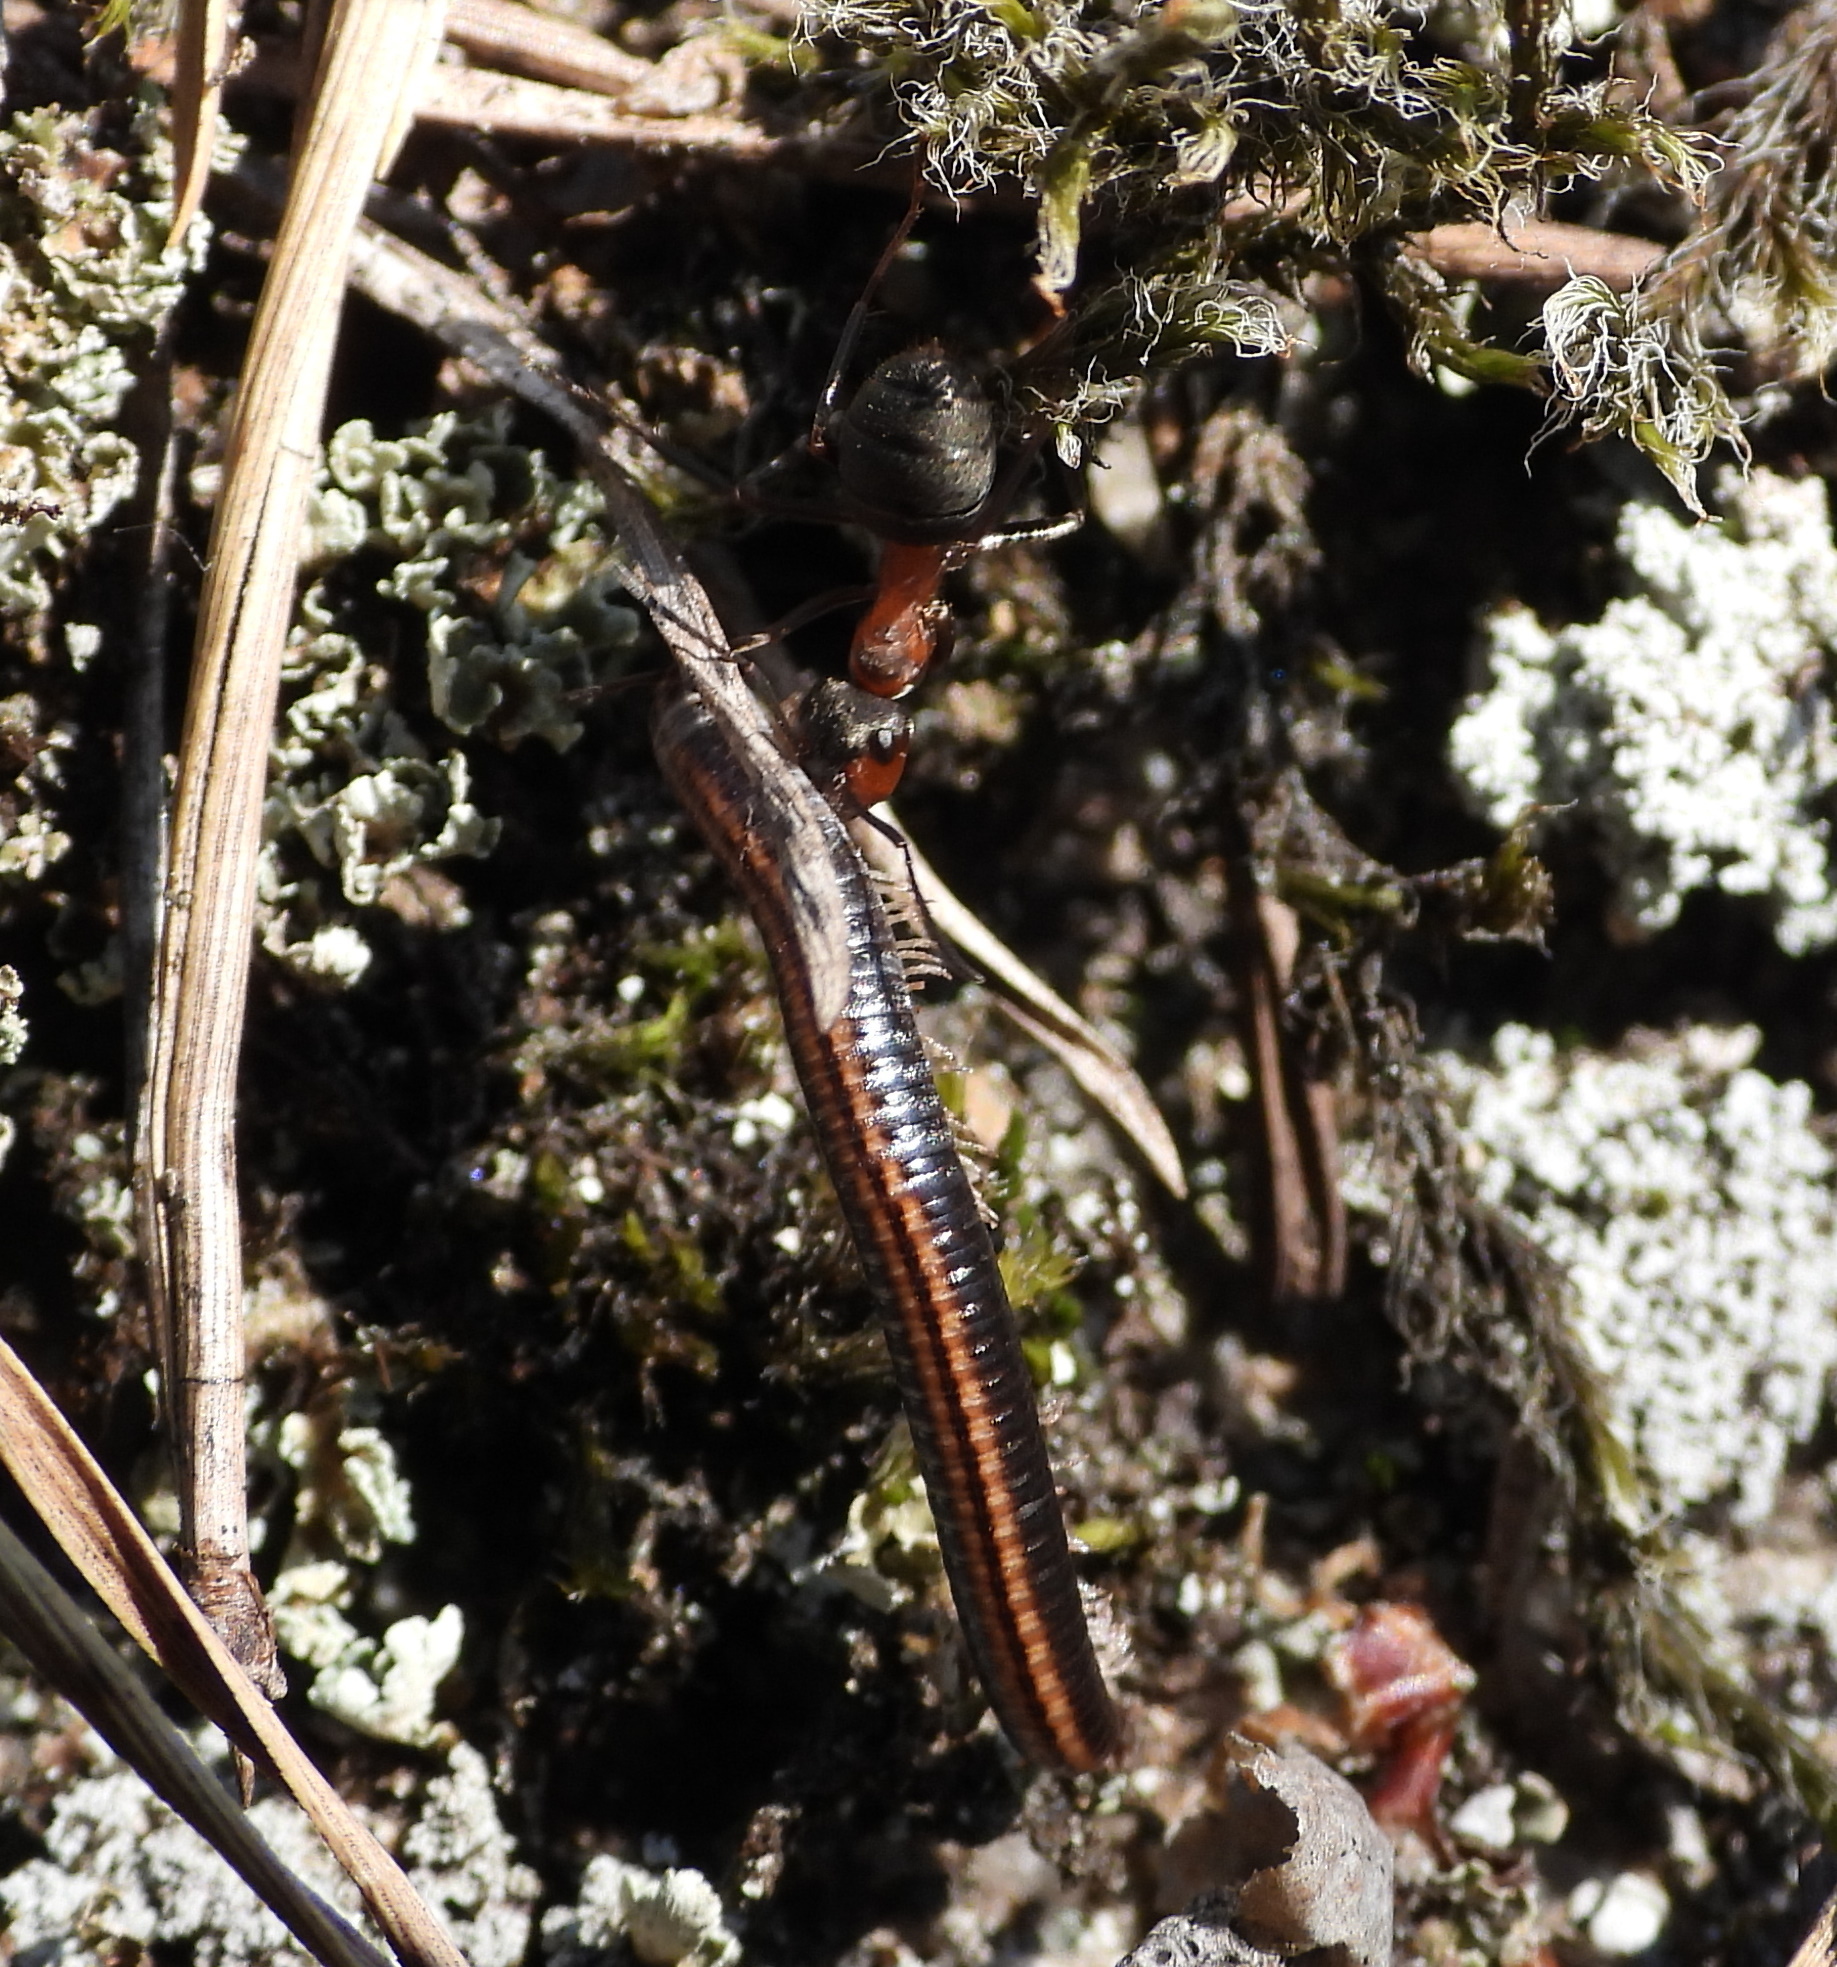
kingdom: Animalia
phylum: Arthropoda
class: Diplopoda
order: Julida
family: Julidae
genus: Ommatoiulus
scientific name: Ommatoiulus sabulosus
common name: Striped millipede
